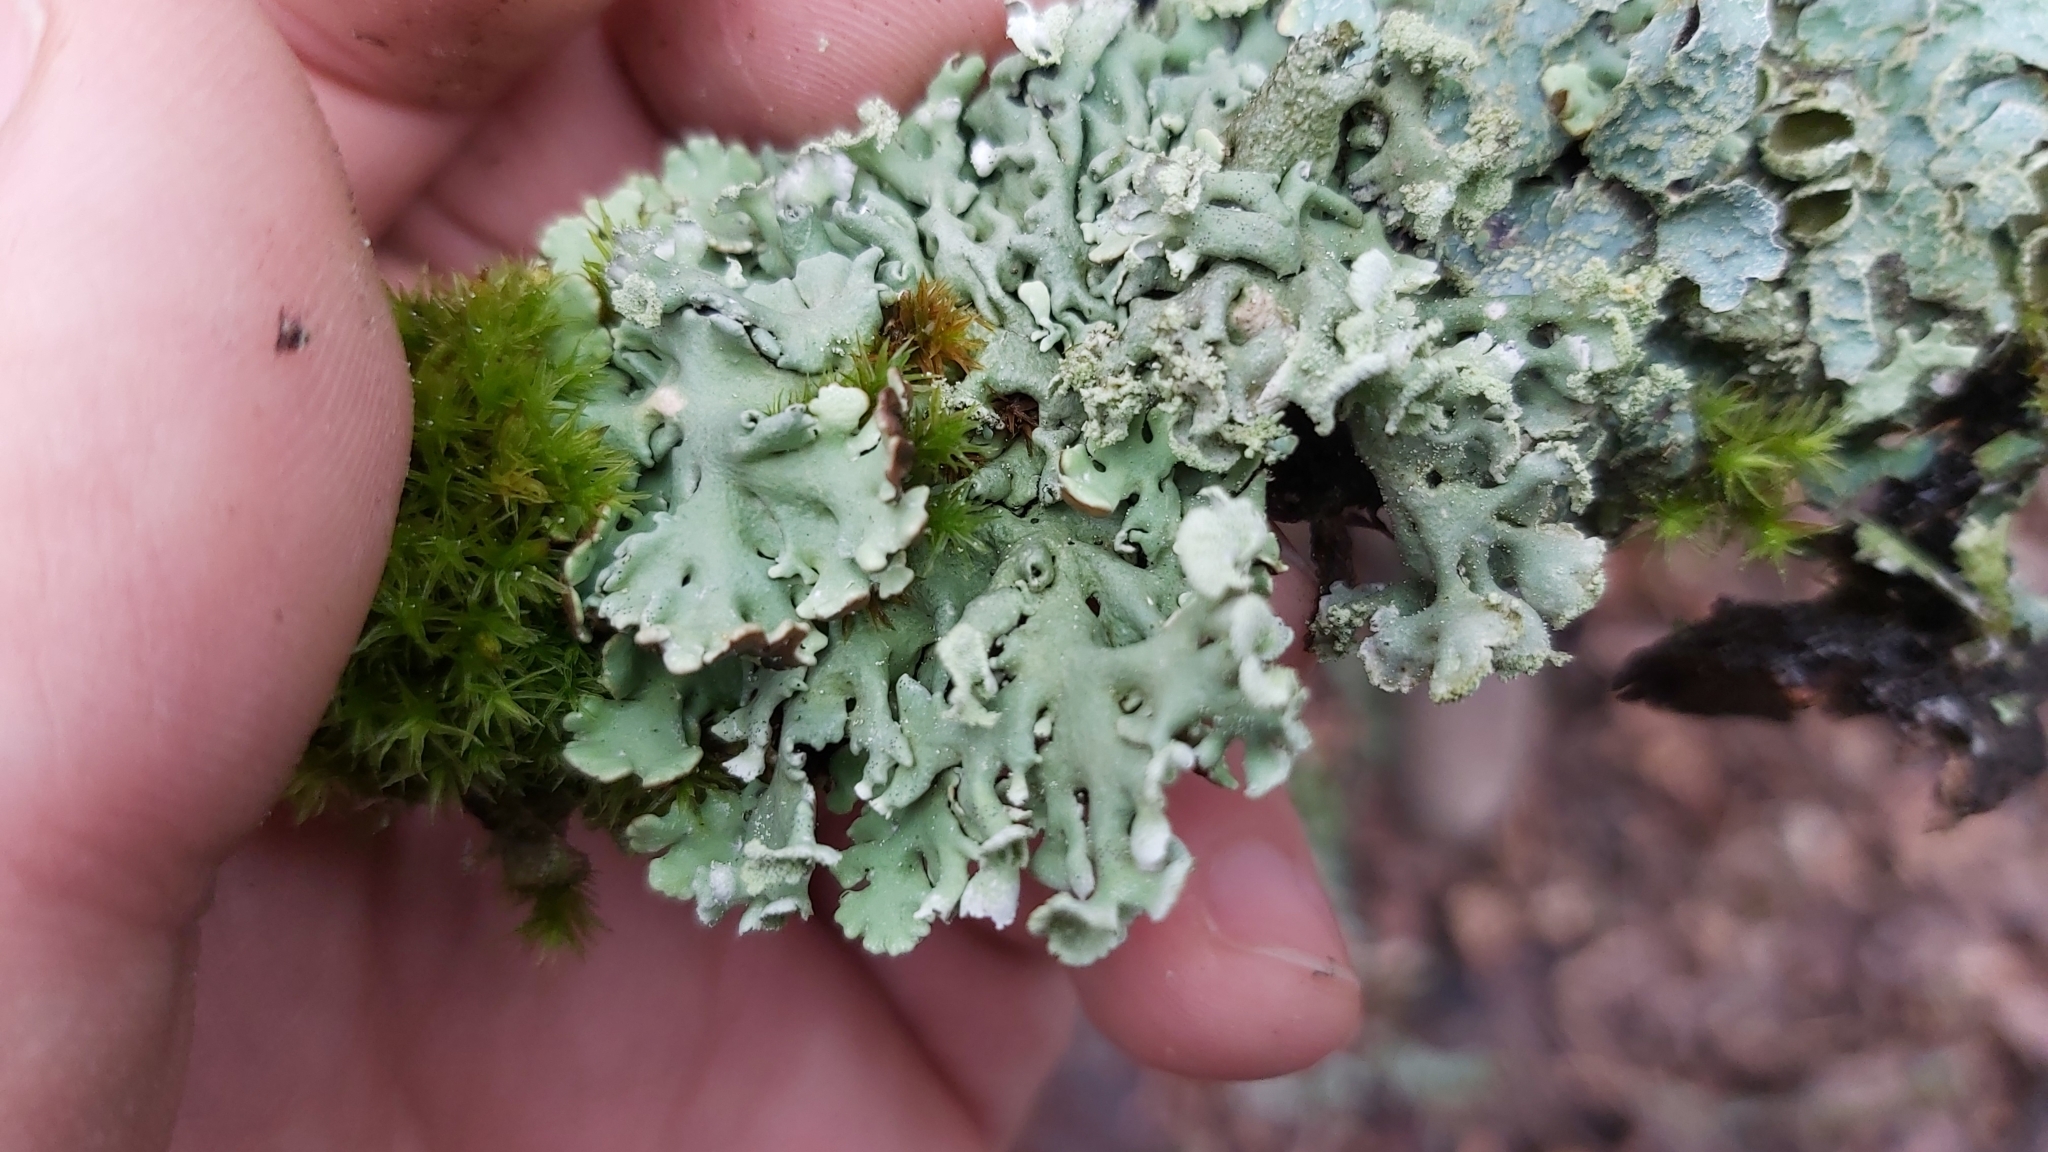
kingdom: Fungi
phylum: Ascomycota
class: Lecanoromycetes
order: Lecanorales
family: Parmeliaceae
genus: Hypogymnia
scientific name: Hypogymnia physodes
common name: Dark crottle
